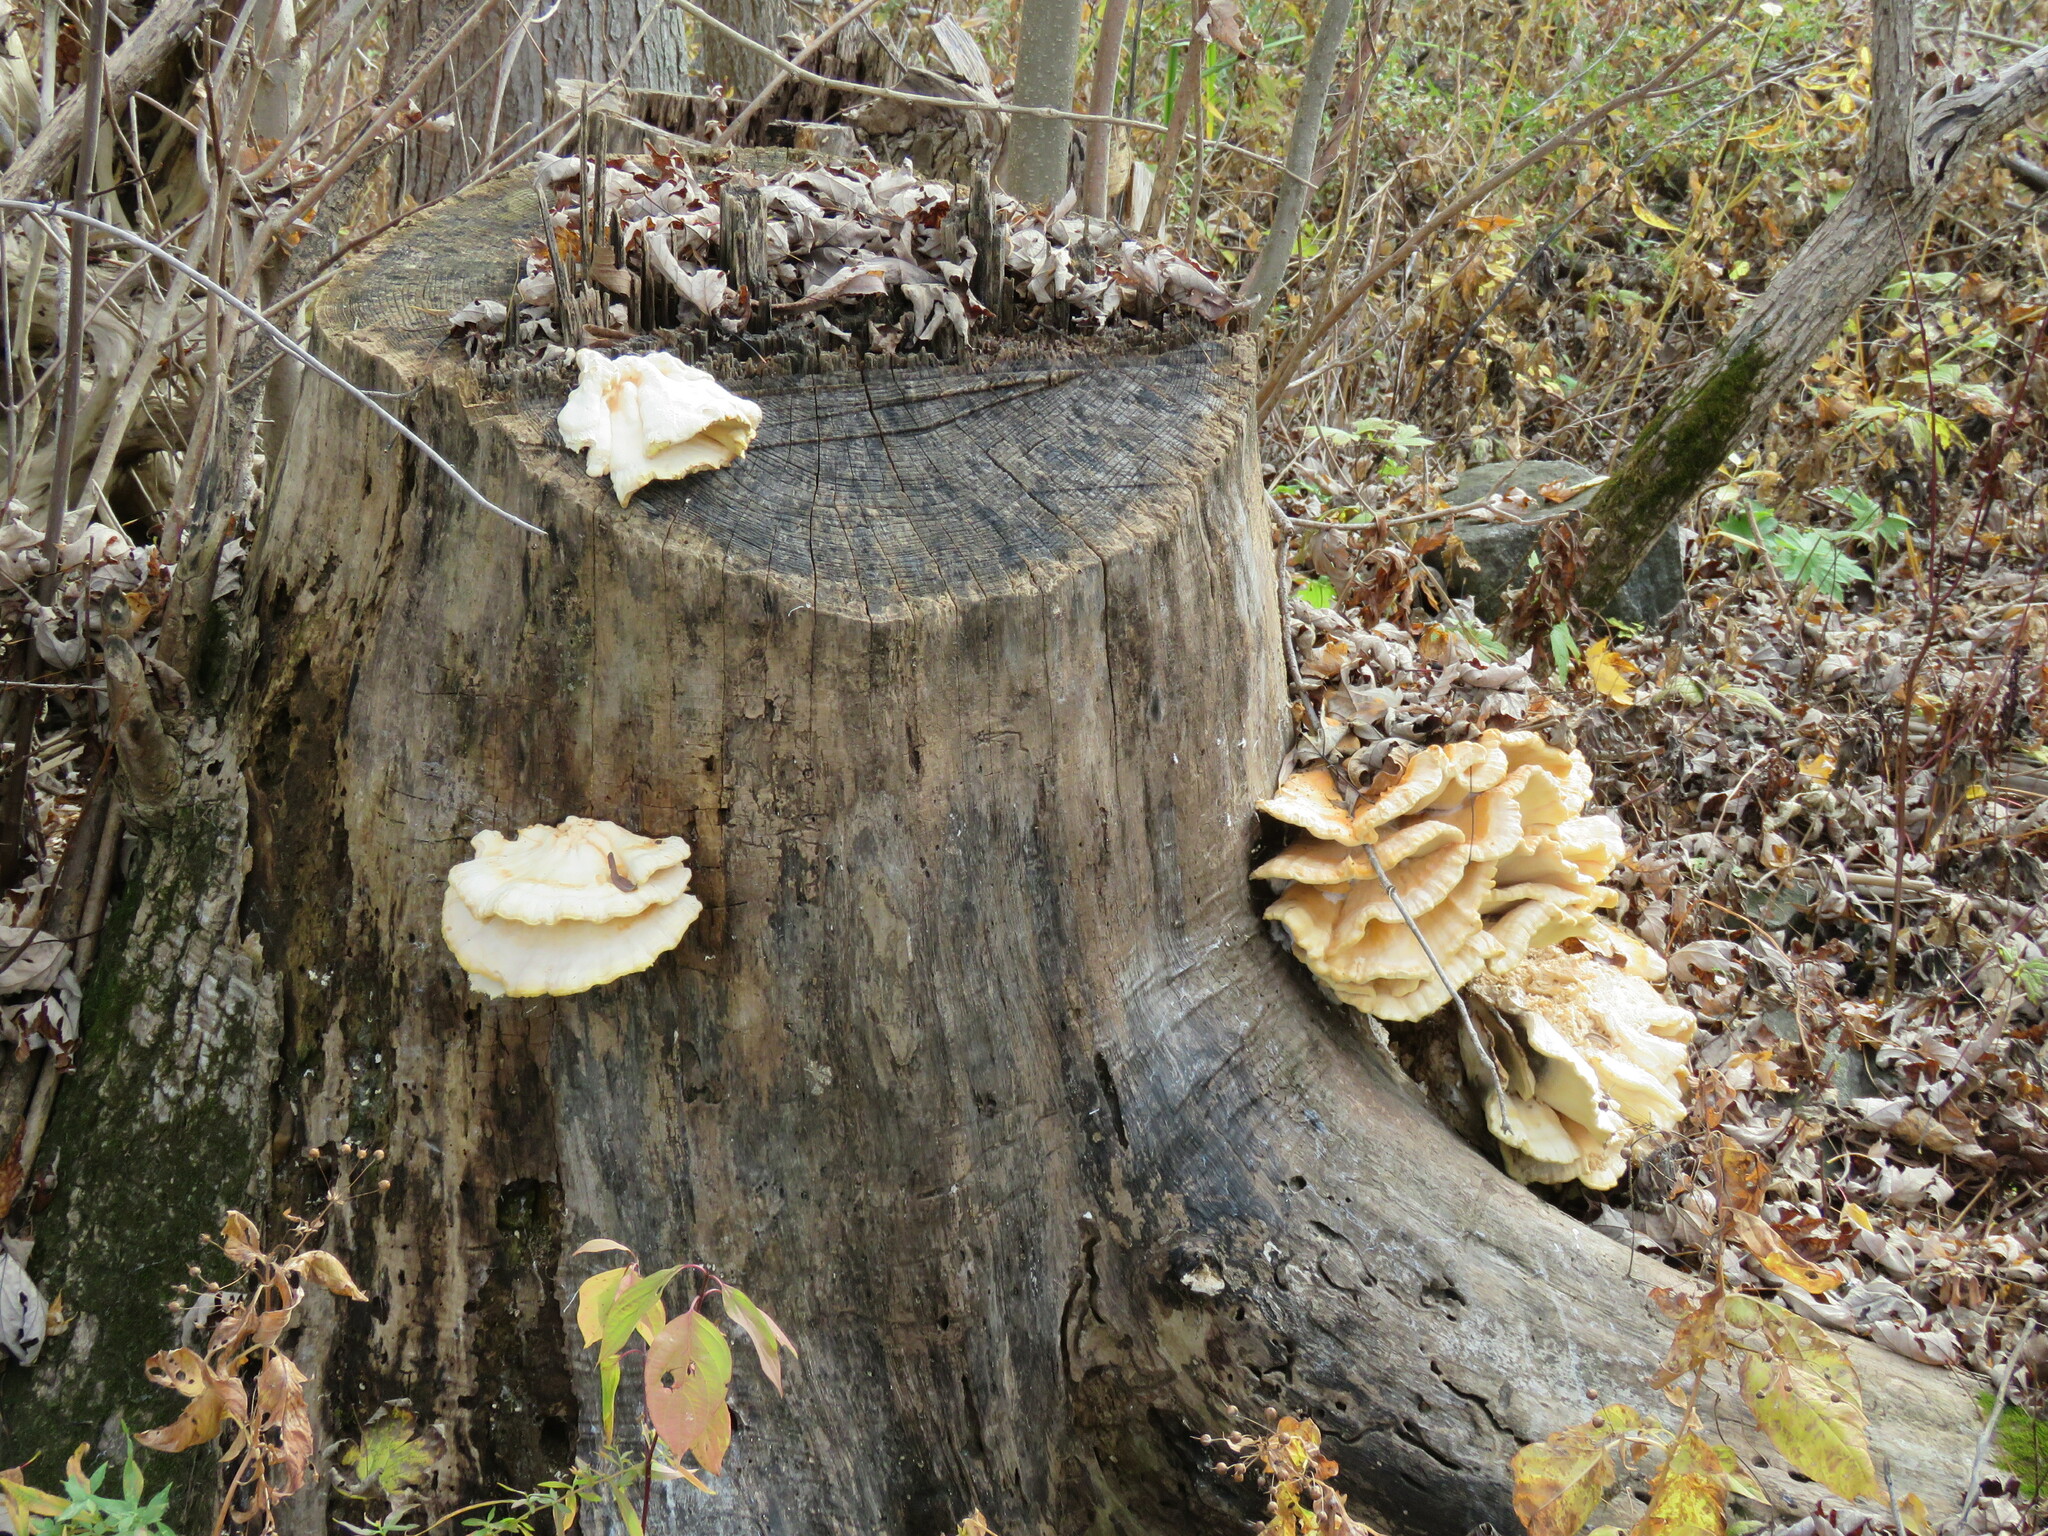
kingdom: Fungi
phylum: Basidiomycota
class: Agaricomycetes
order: Polyporales
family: Laetiporaceae
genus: Laetiporus
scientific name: Laetiporus sulphureus
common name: Chicken of the woods
